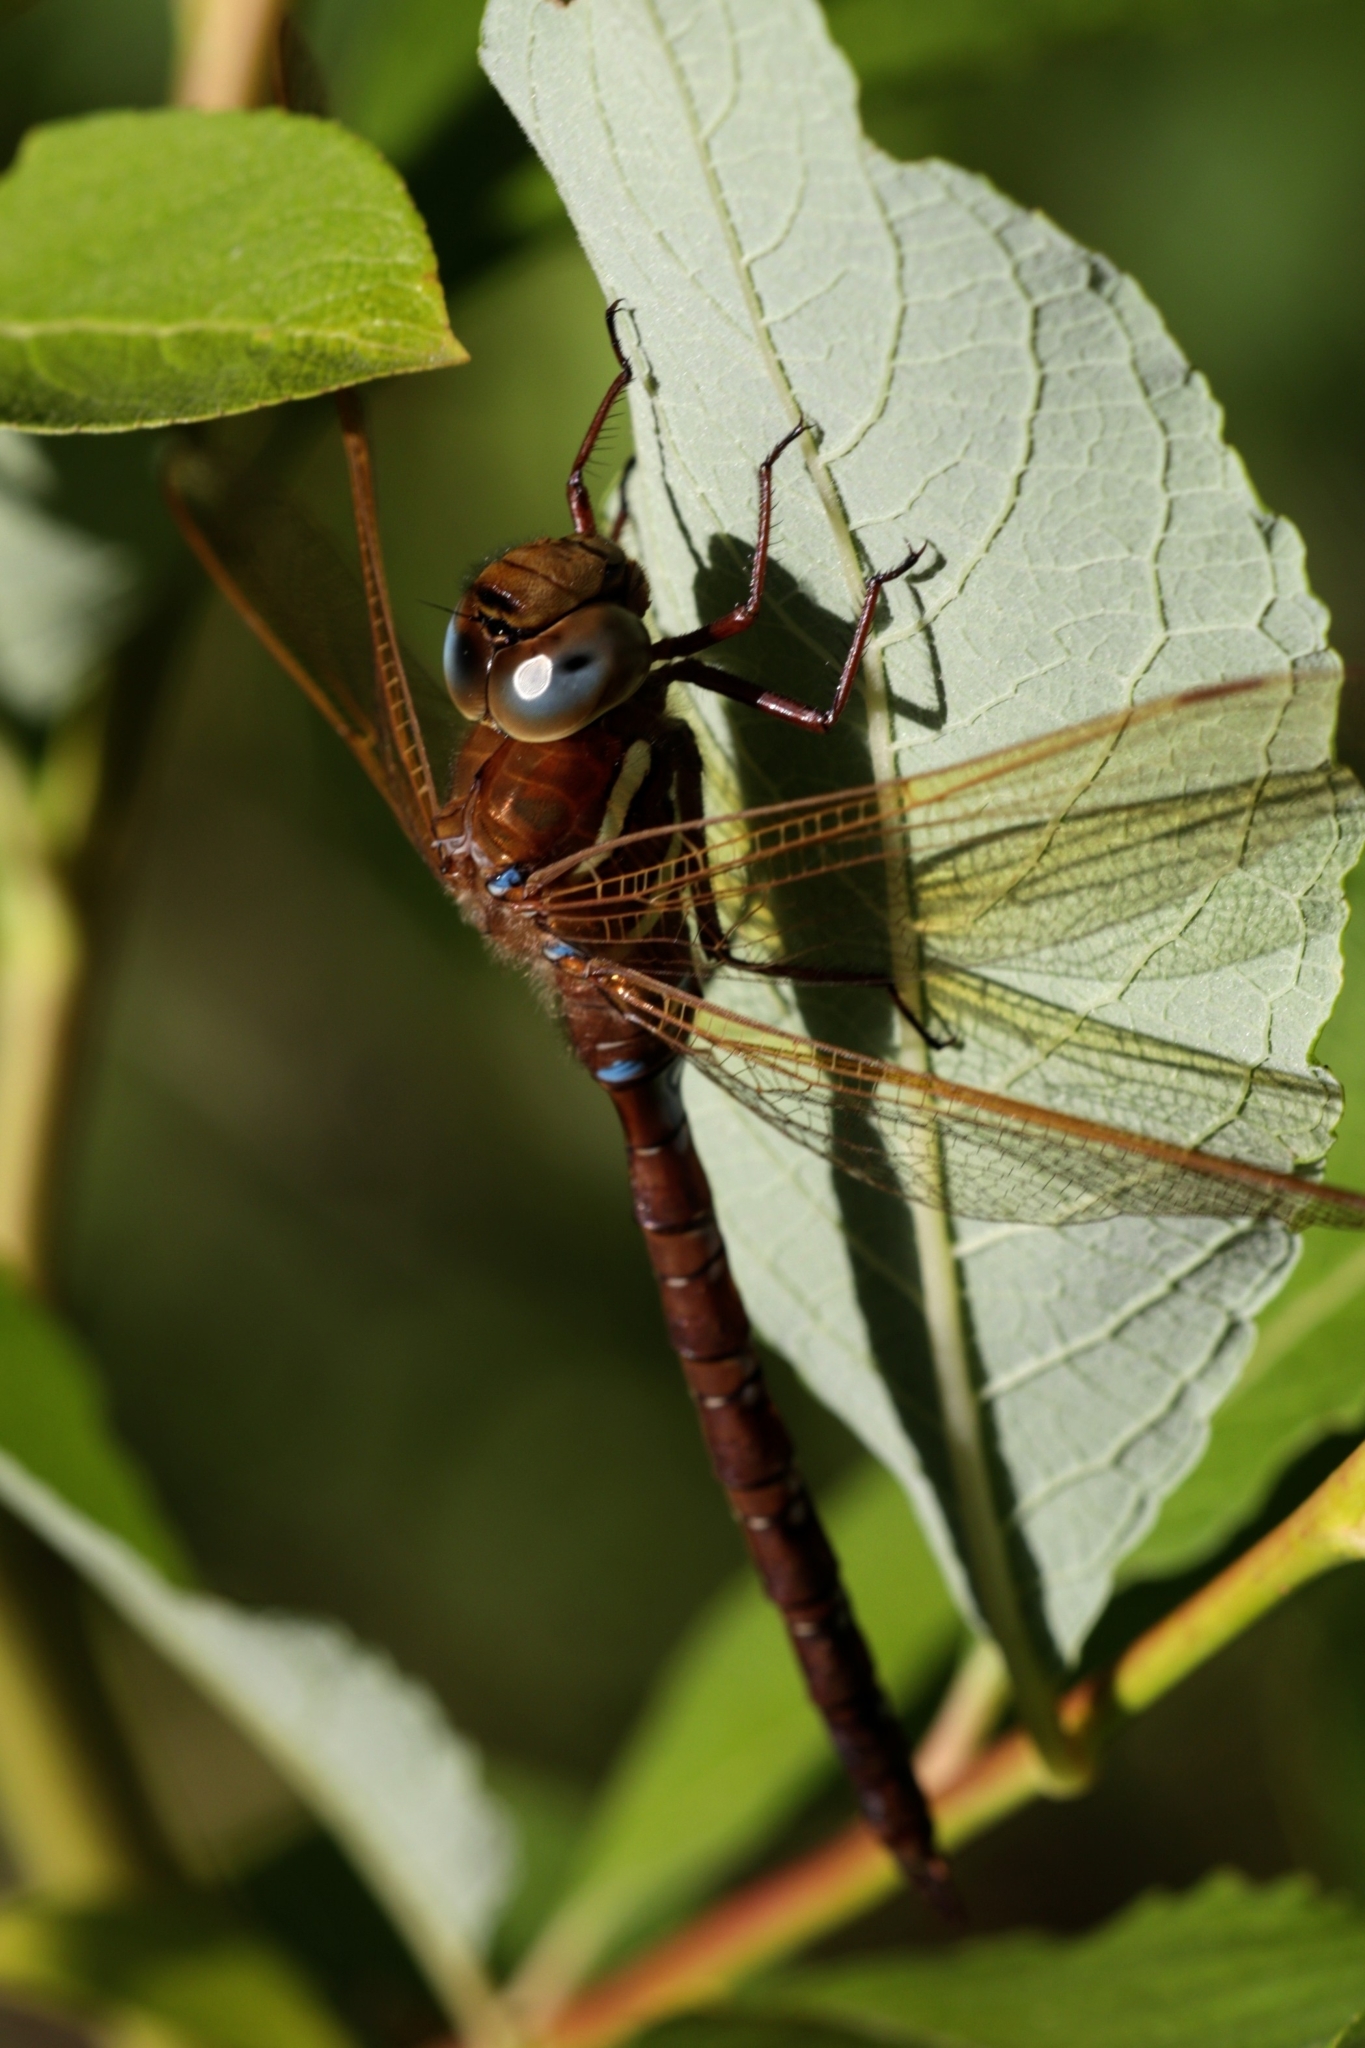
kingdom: Animalia
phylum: Arthropoda
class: Insecta
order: Odonata
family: Aeshnidae
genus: Aeshna
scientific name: Aeshna grandis
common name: Brown hawker
